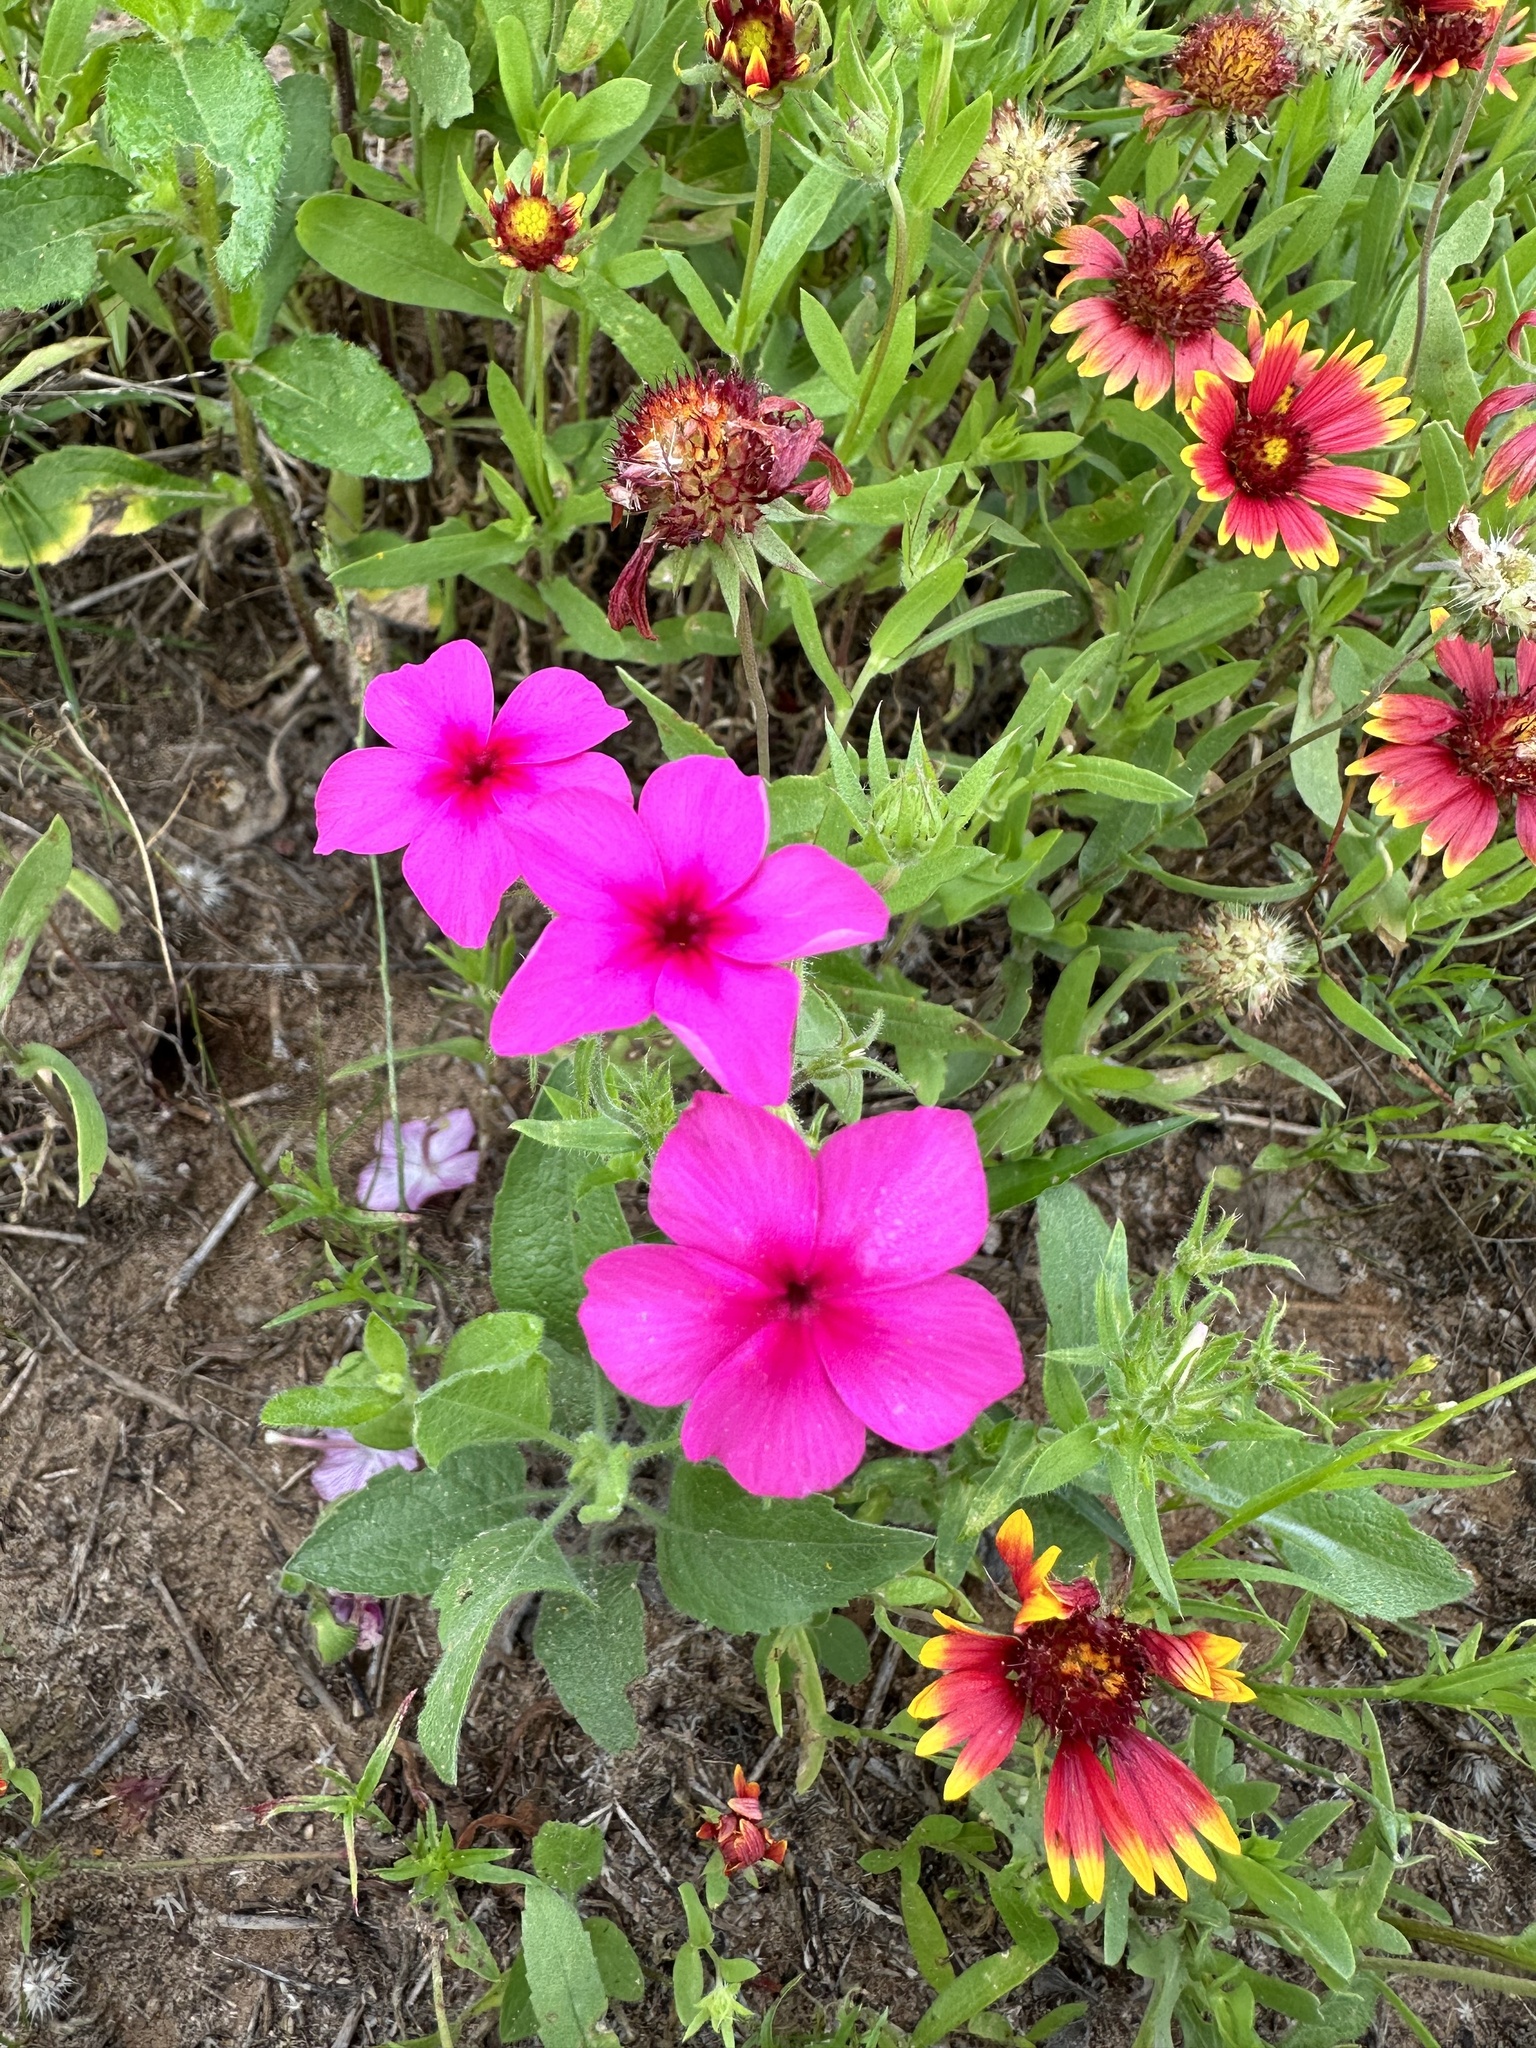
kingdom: Plantae
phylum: Tracheophyta
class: Magnoliopsida
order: Ericales
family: Polemoniaceae
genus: Phlox
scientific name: Phlox drummondii
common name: Drummond's phlox
